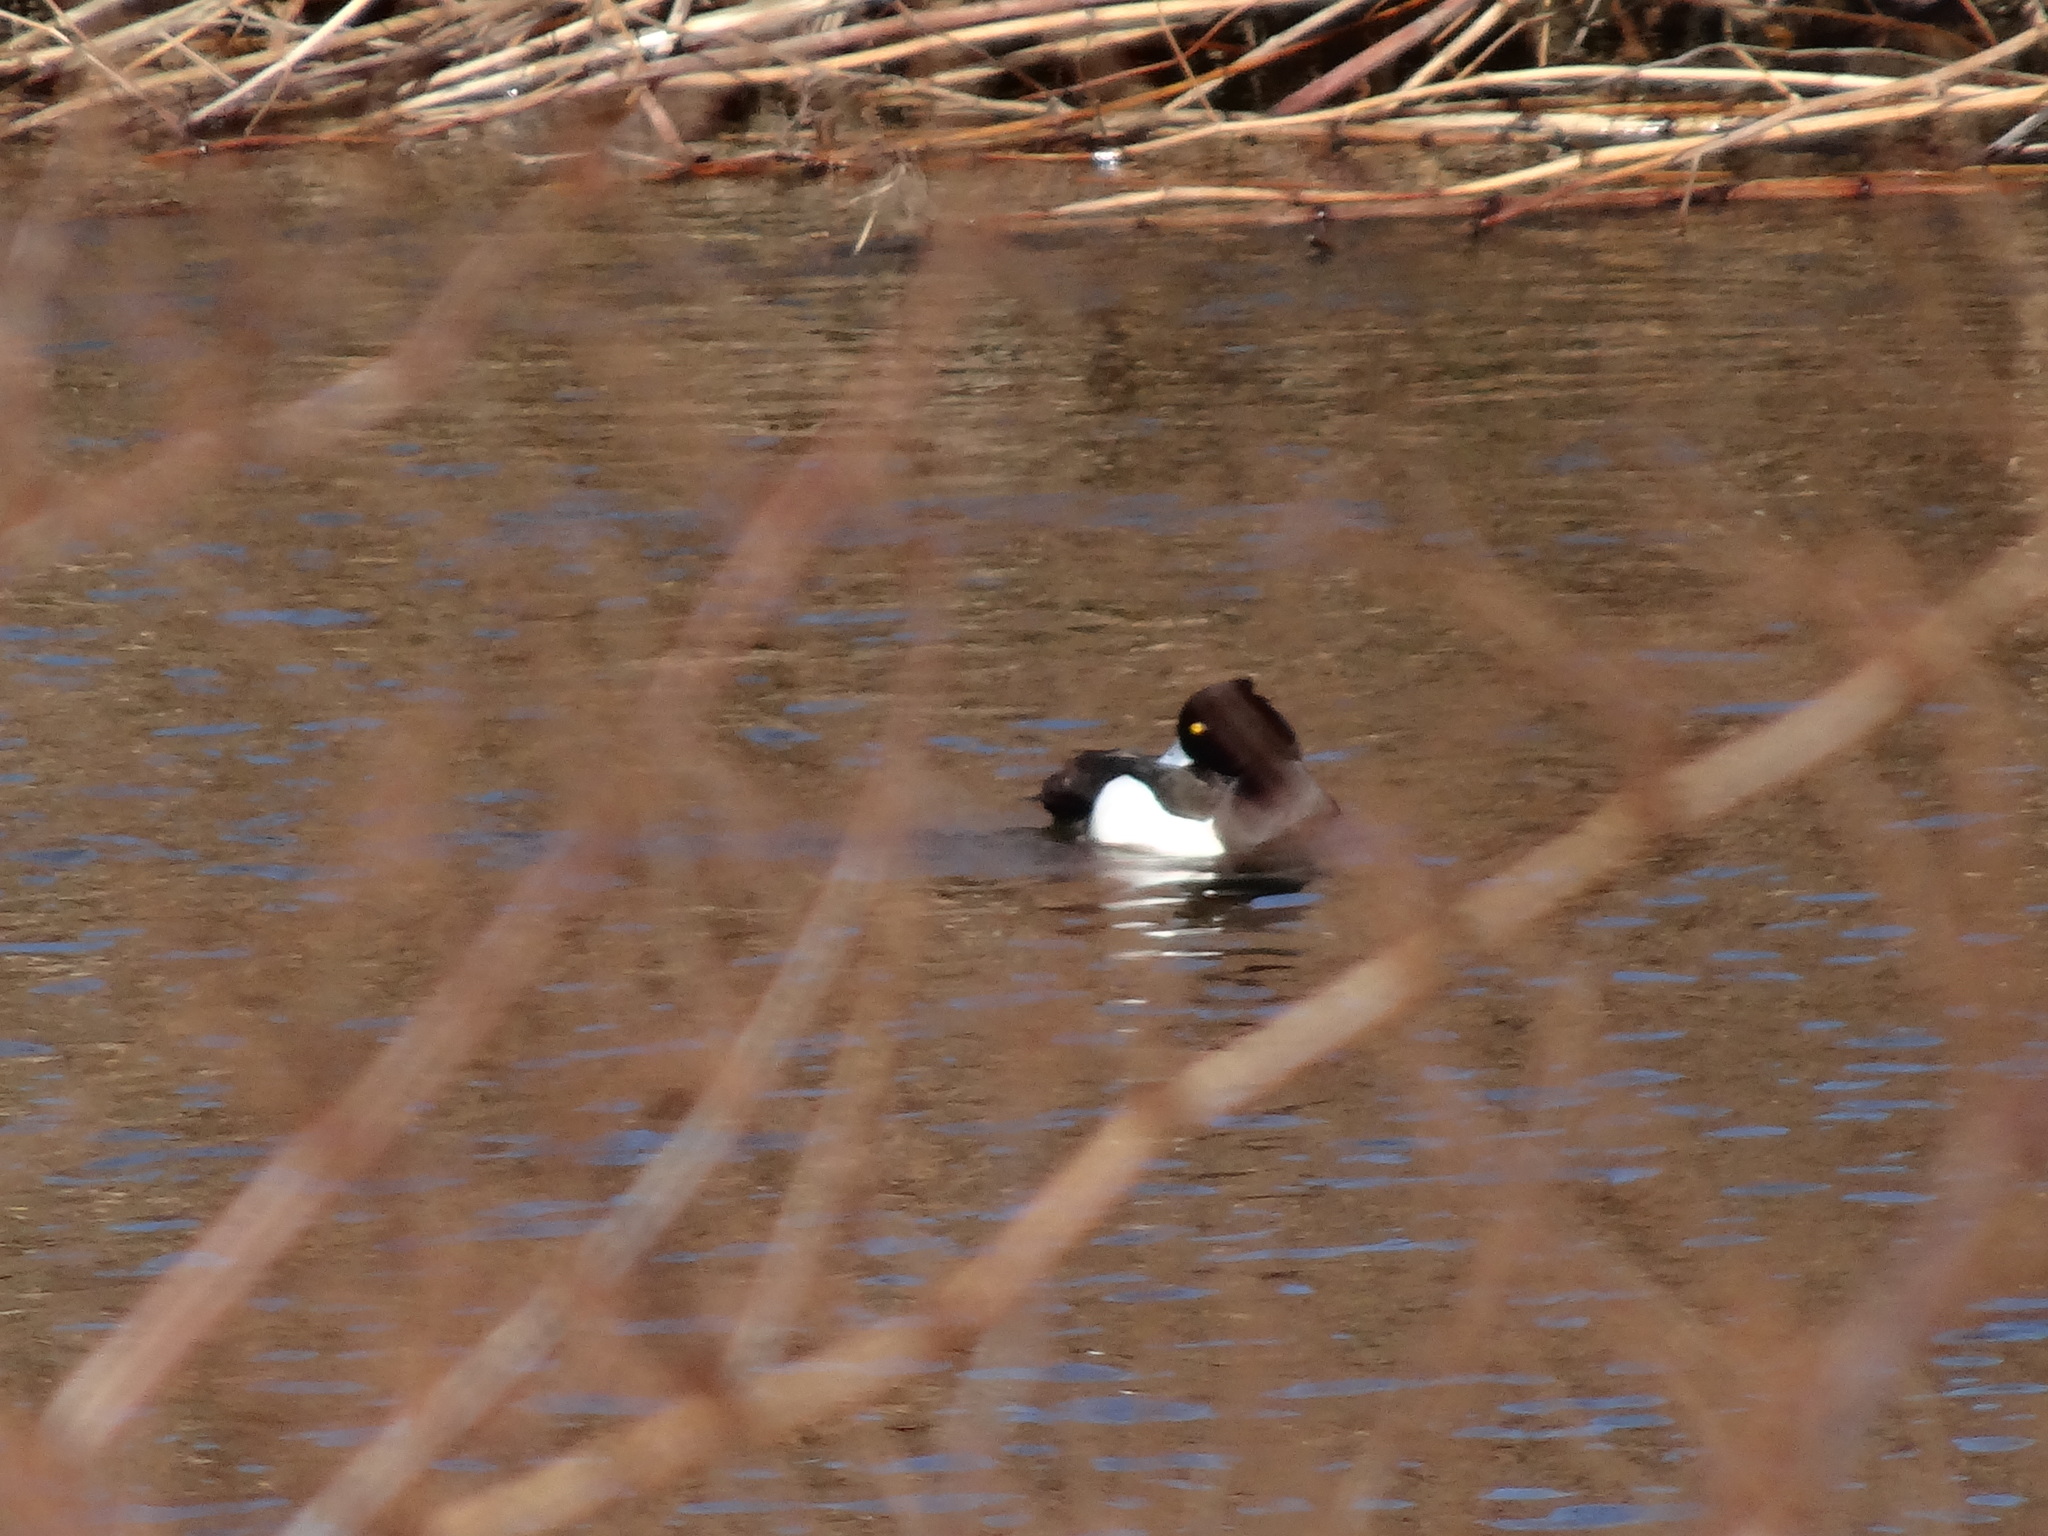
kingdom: Animalia
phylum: Chordata
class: Aves
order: Anseriformes
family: Anatidae
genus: Aythya
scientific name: Aythya fuligula
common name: Tufted duck
